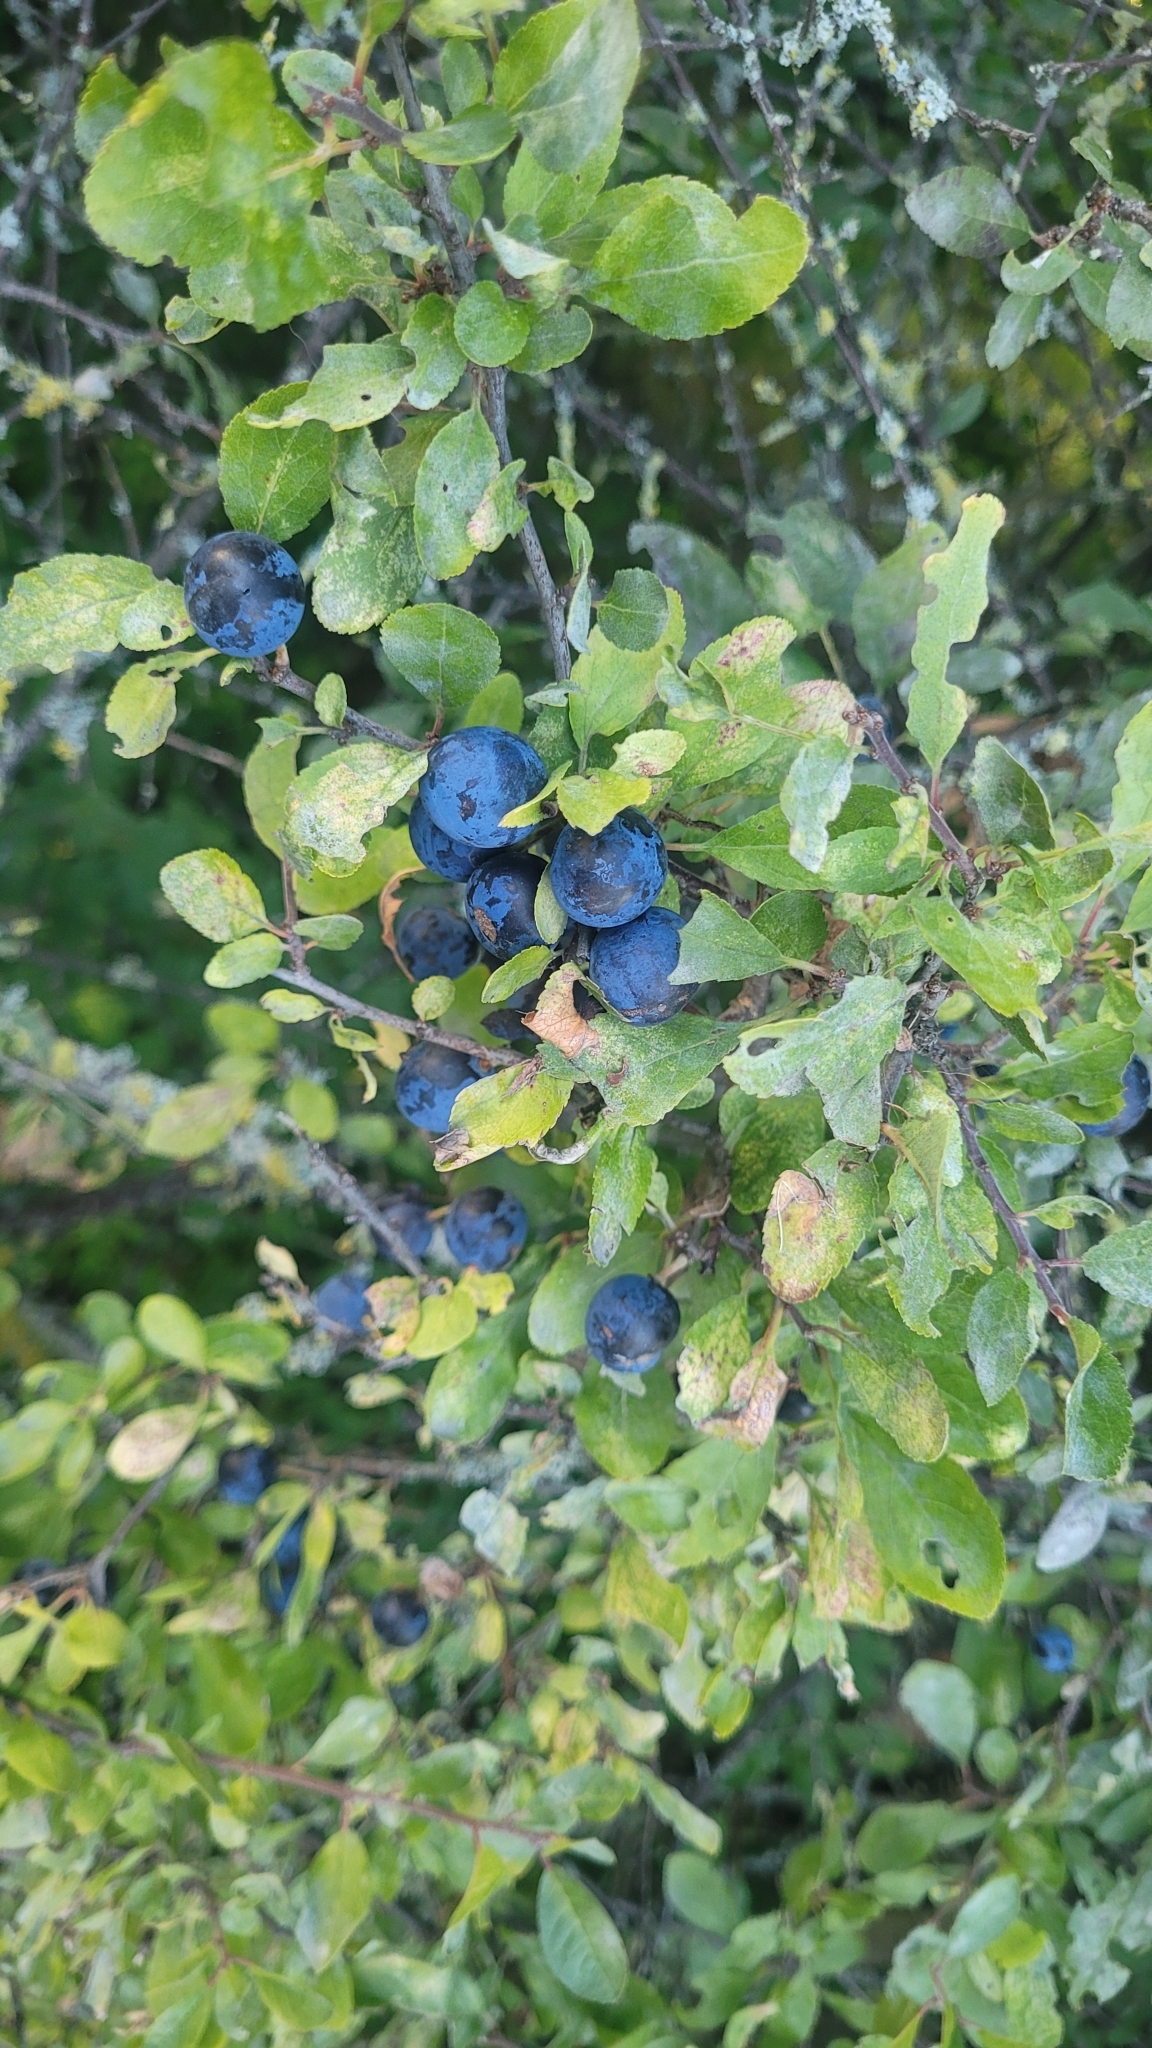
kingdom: Plantae
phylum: Tracheophyta
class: Magnoliopsida
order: Rosales
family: Rosaceae
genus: Prunus
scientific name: Prunus spinosa
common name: Blackthorn
